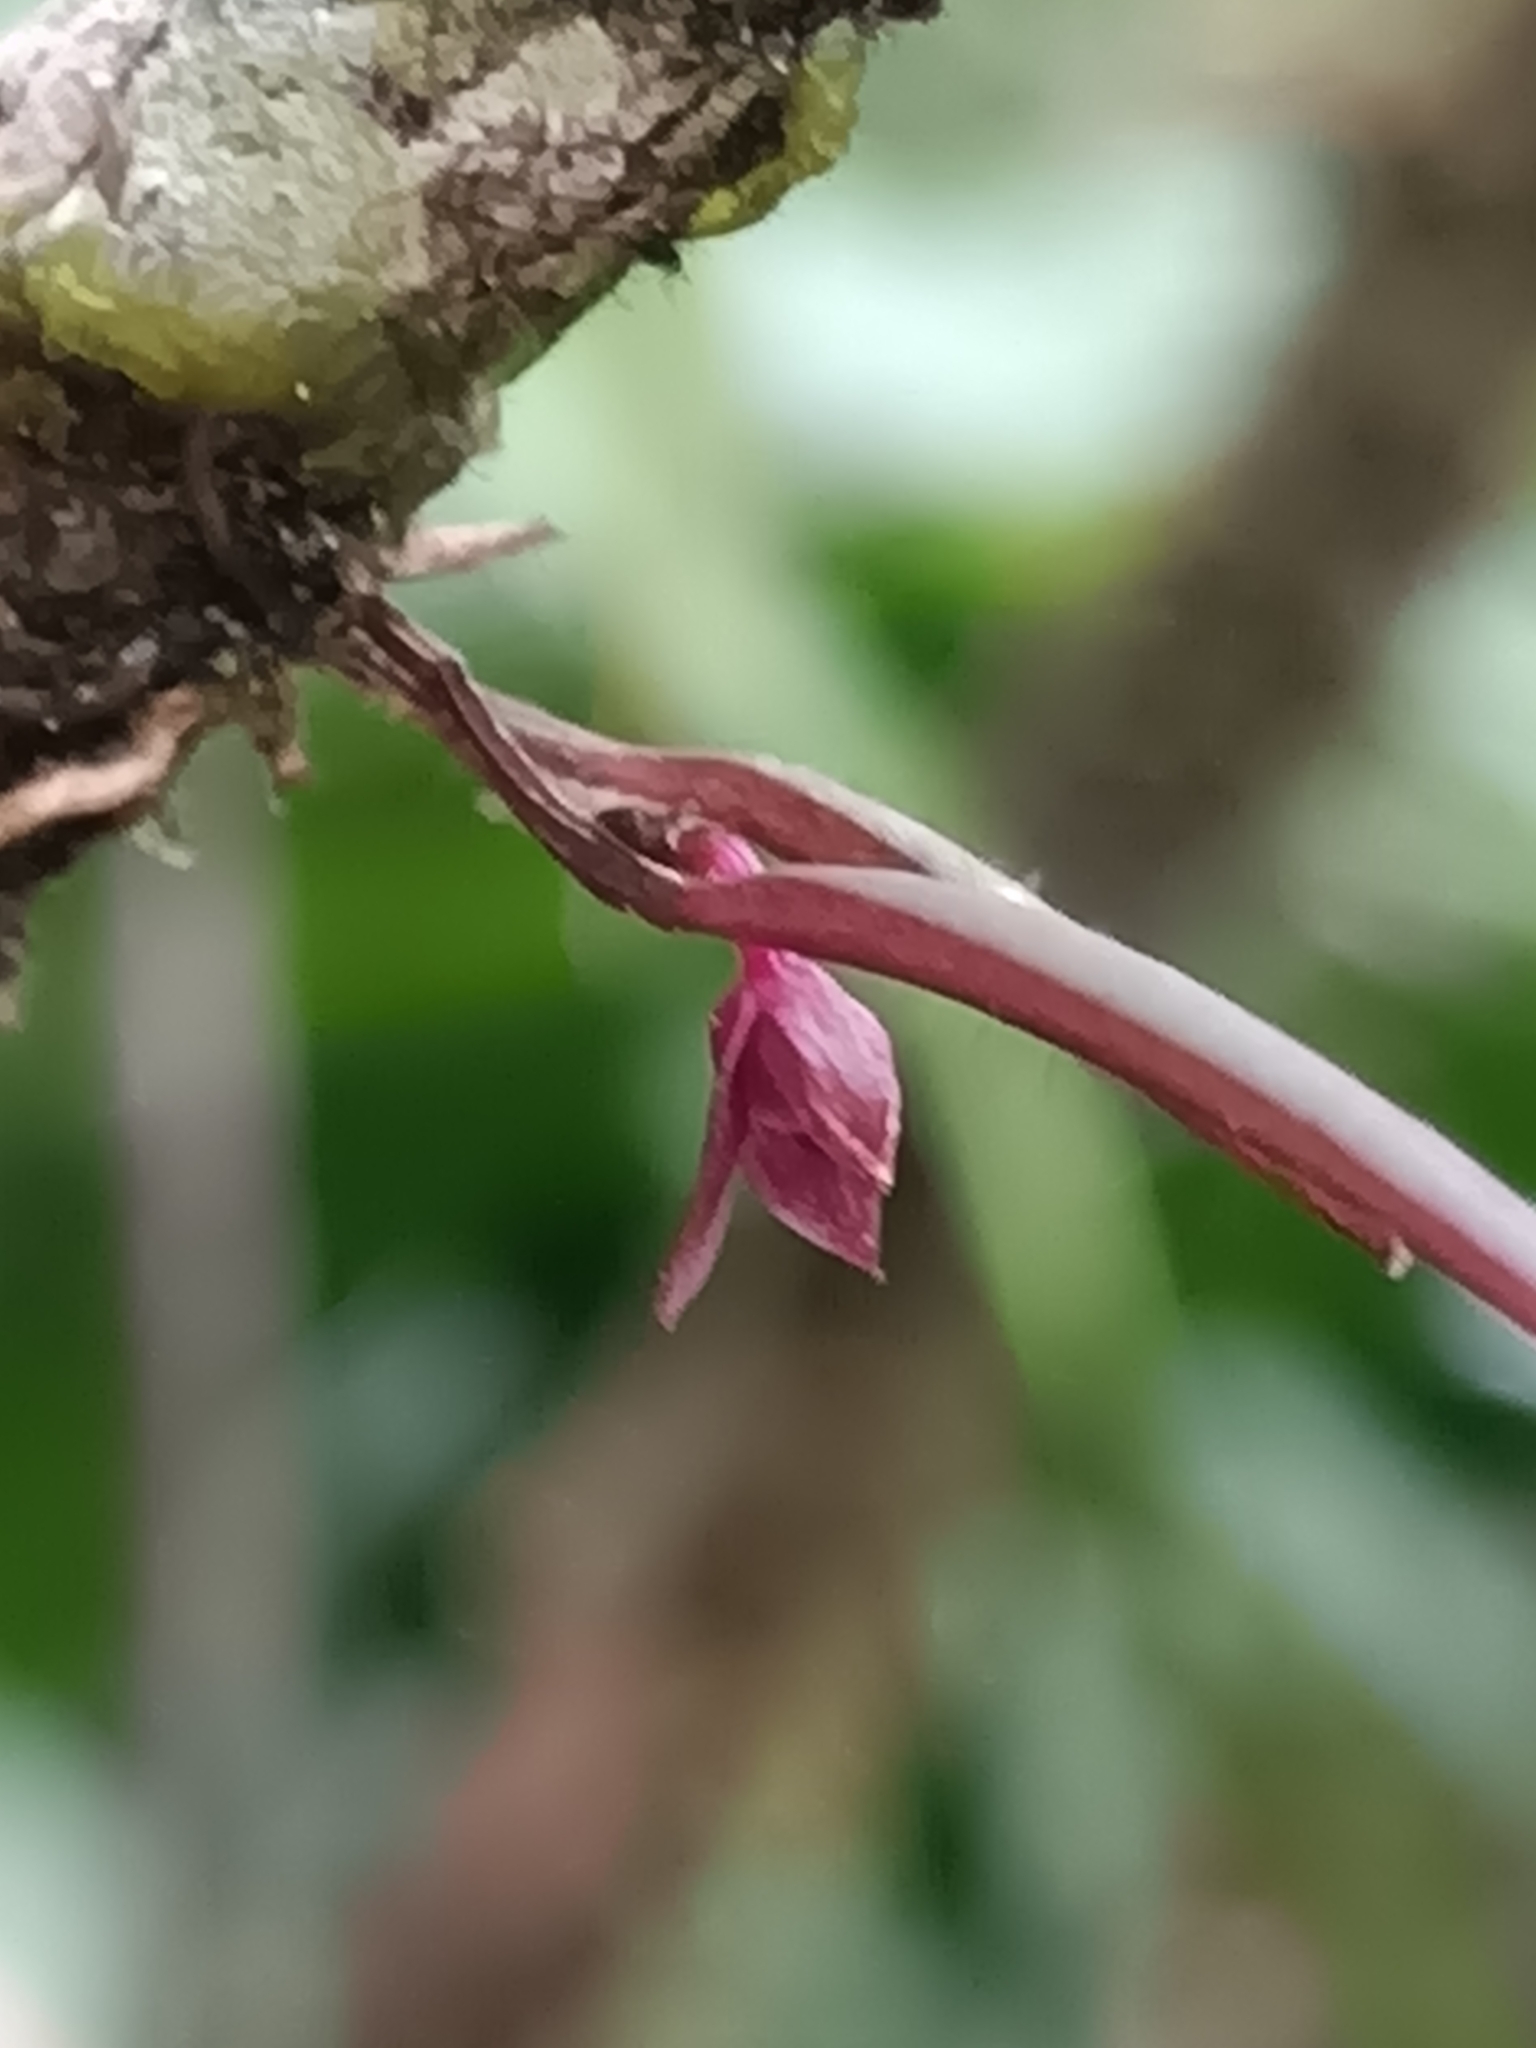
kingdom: Plantae
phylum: Tracheophyta
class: Liliopsida
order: Asparagales
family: Orchidaceae
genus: Octomeria
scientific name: Octomeria sarthouae
